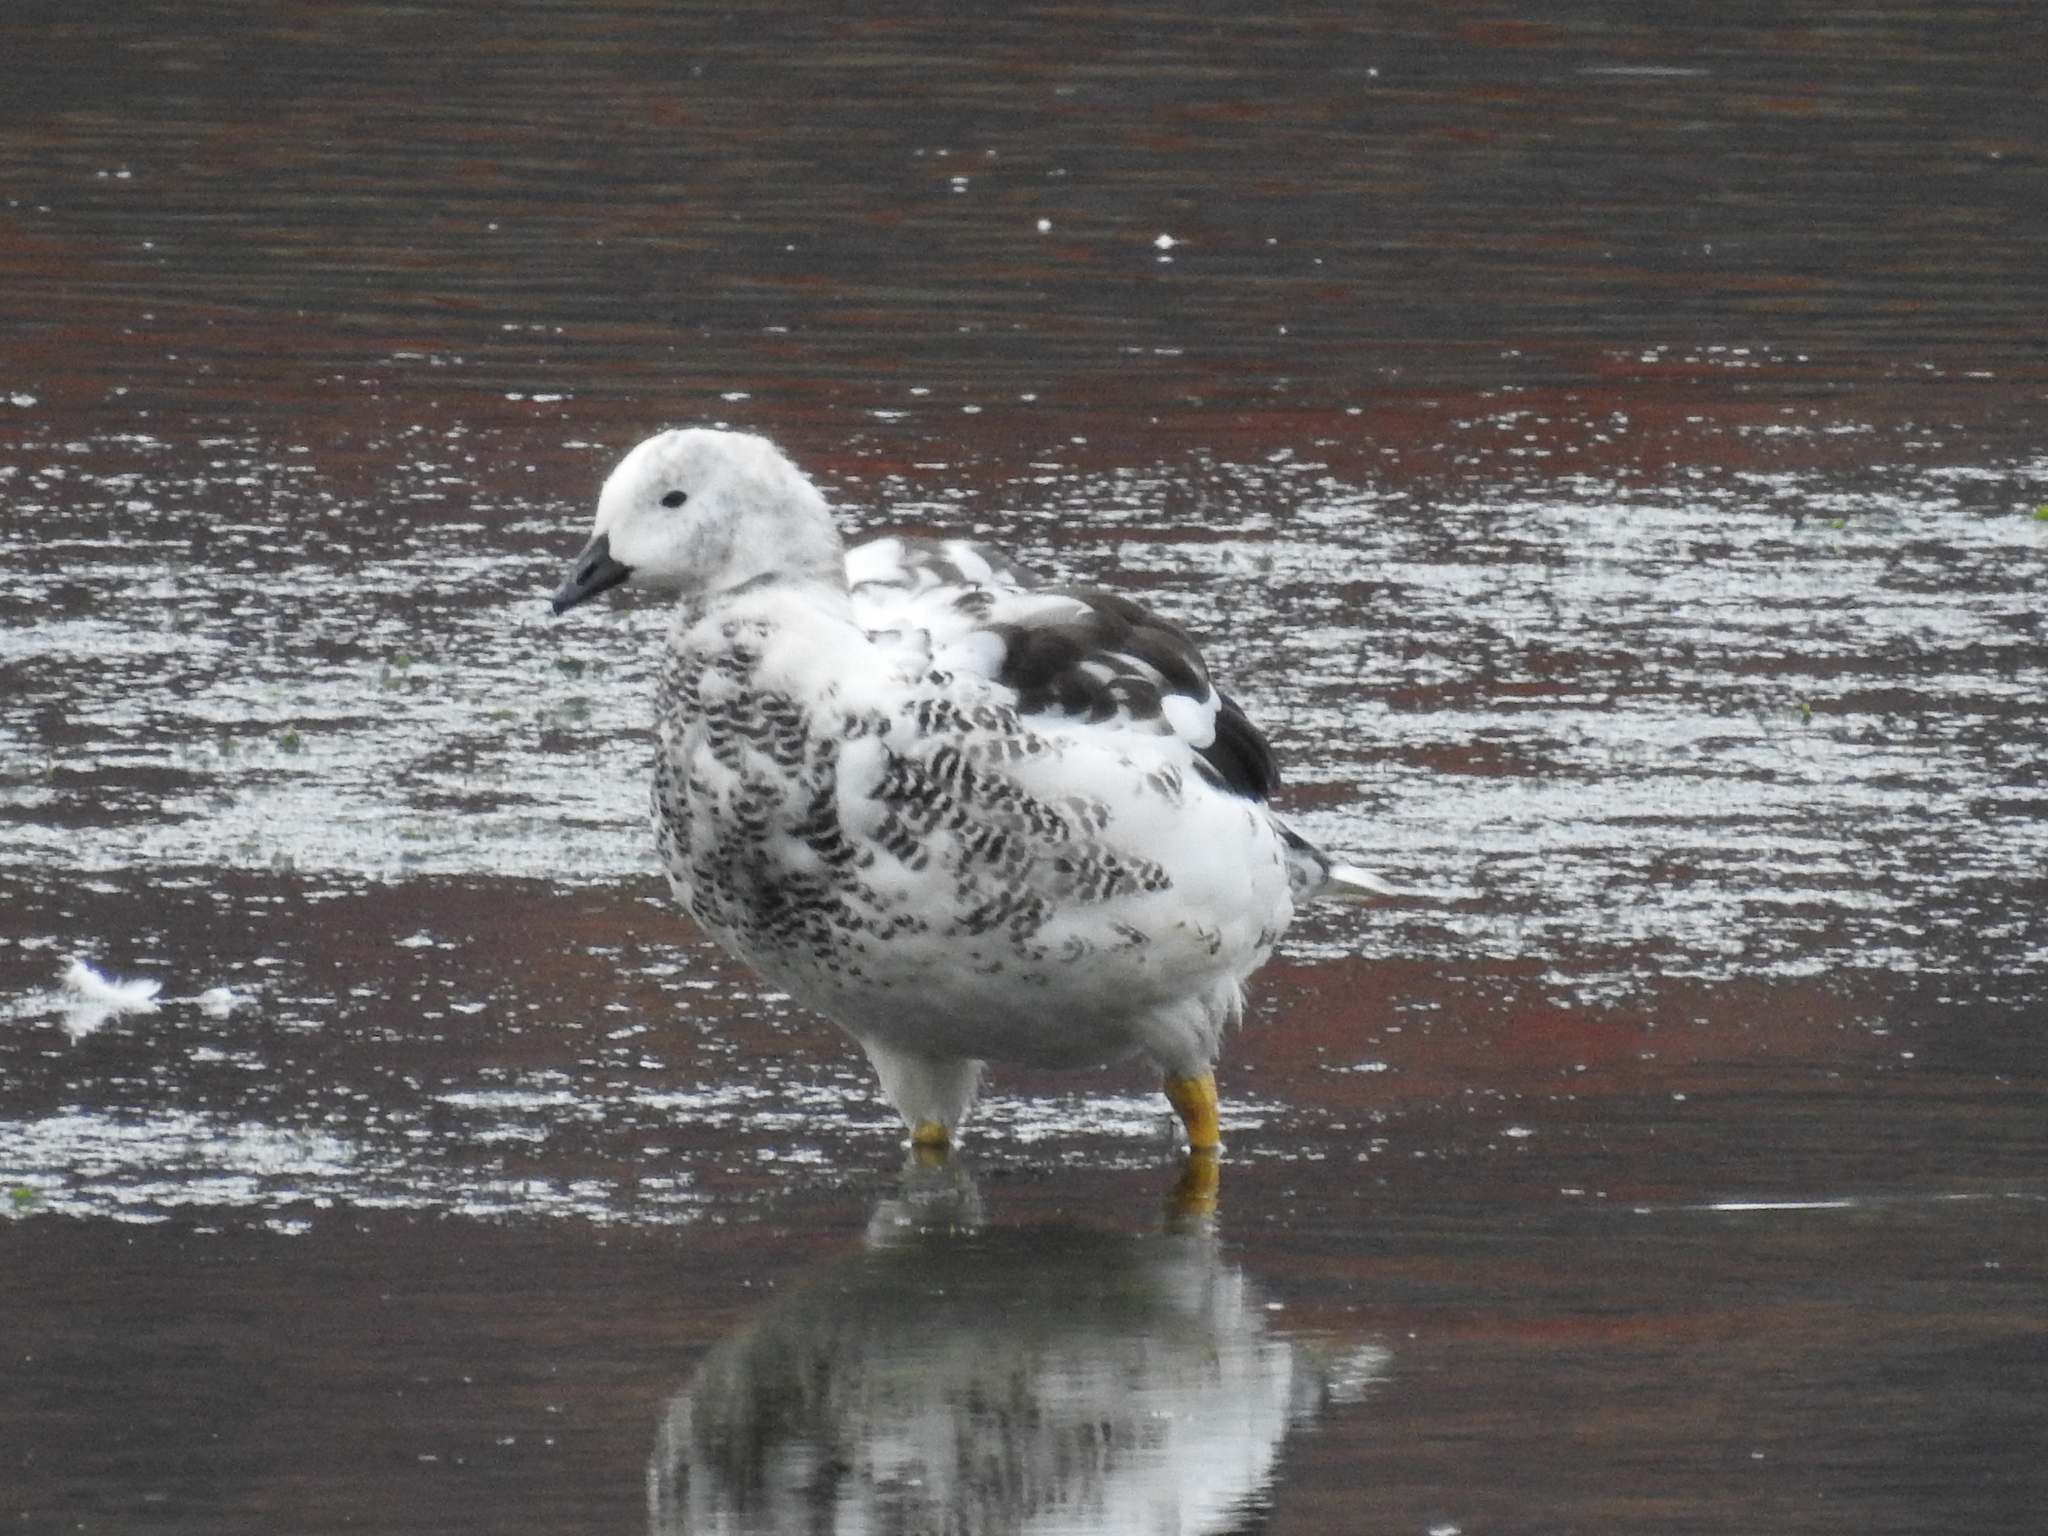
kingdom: Animalia
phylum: Chordata
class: Aves
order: Anseriformes
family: Anatidae
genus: Chloephaga
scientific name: Chloephaga hybrida
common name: Kelp goose
